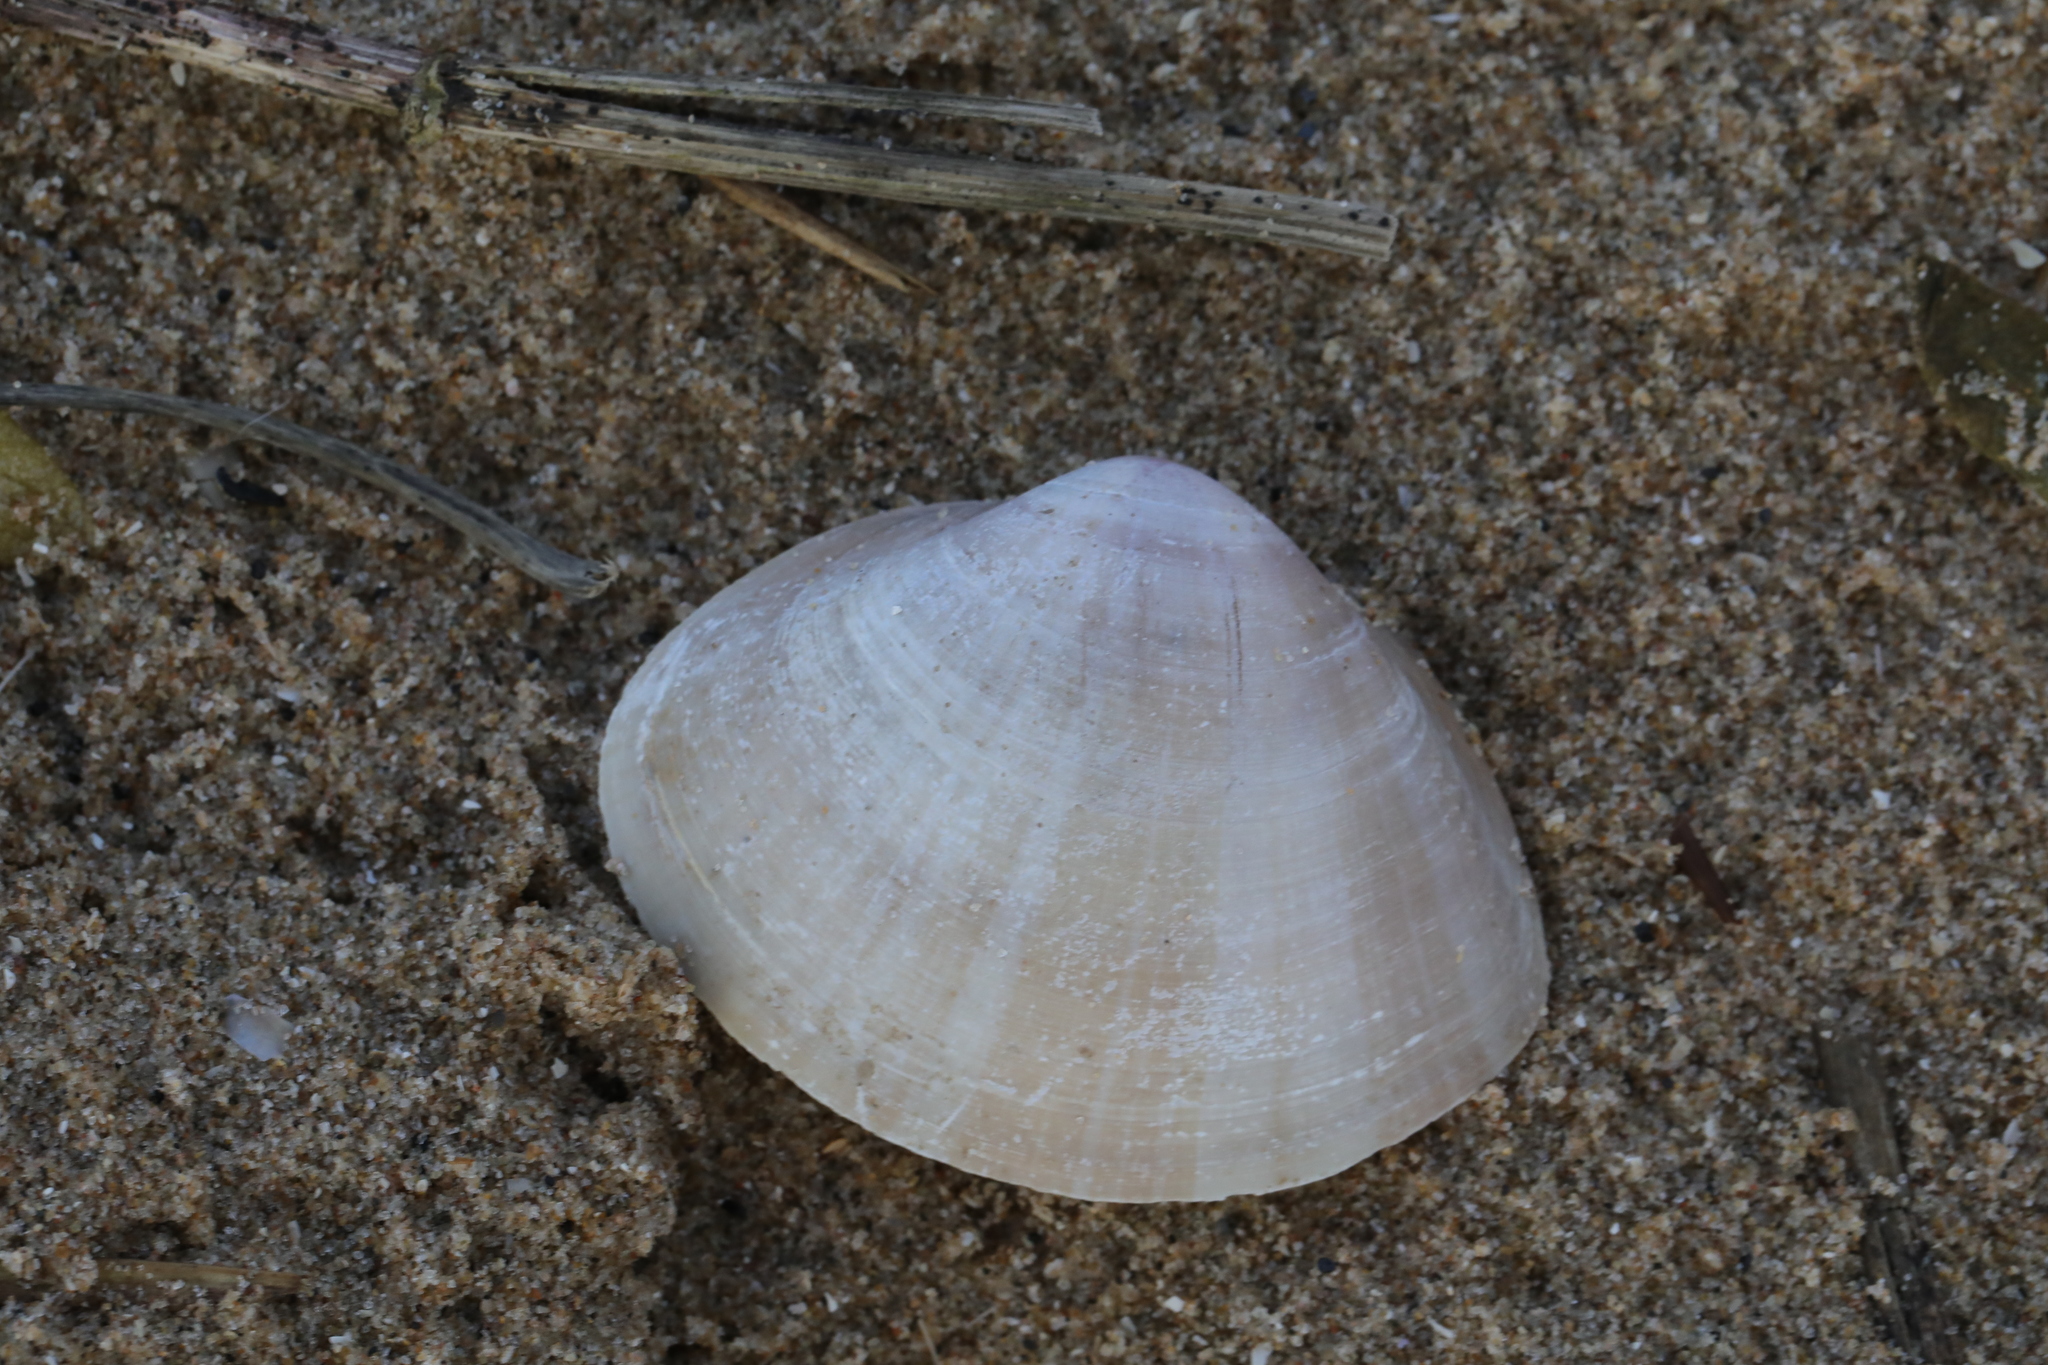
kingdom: Animalia
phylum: Mollusca
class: Bivalvia
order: Venerida
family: Mactridae
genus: Mactra
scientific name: Mactra stultorum
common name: Rayed trough shell
